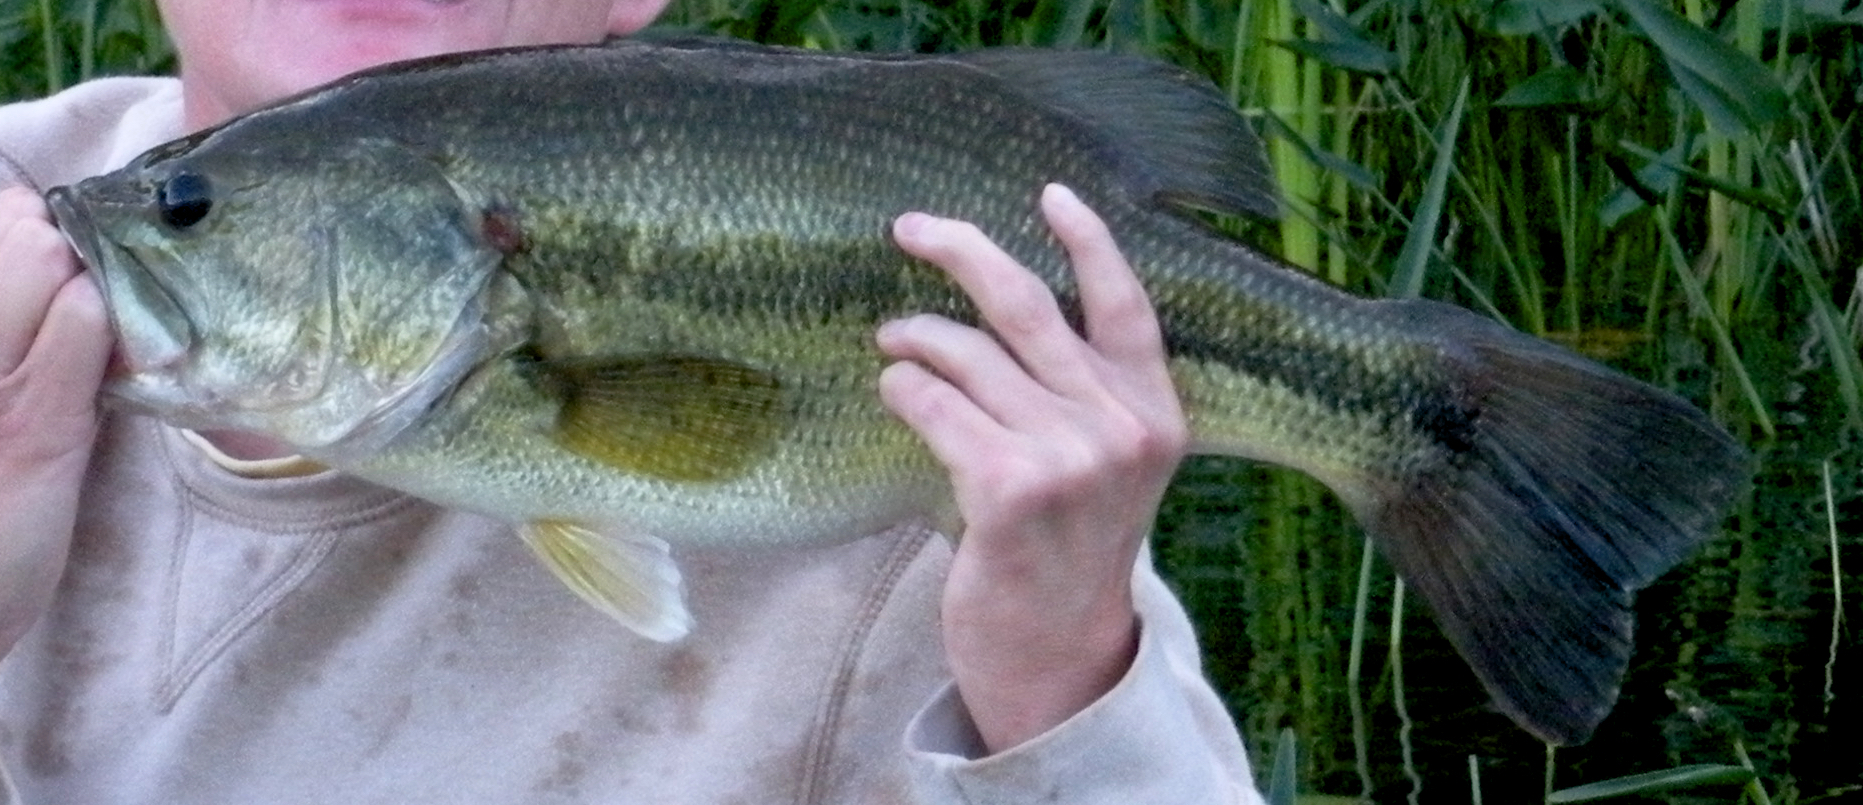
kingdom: Animalia
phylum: Chordata
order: Perciformes
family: Centrarchidae
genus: Micropterus
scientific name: Micropterus
